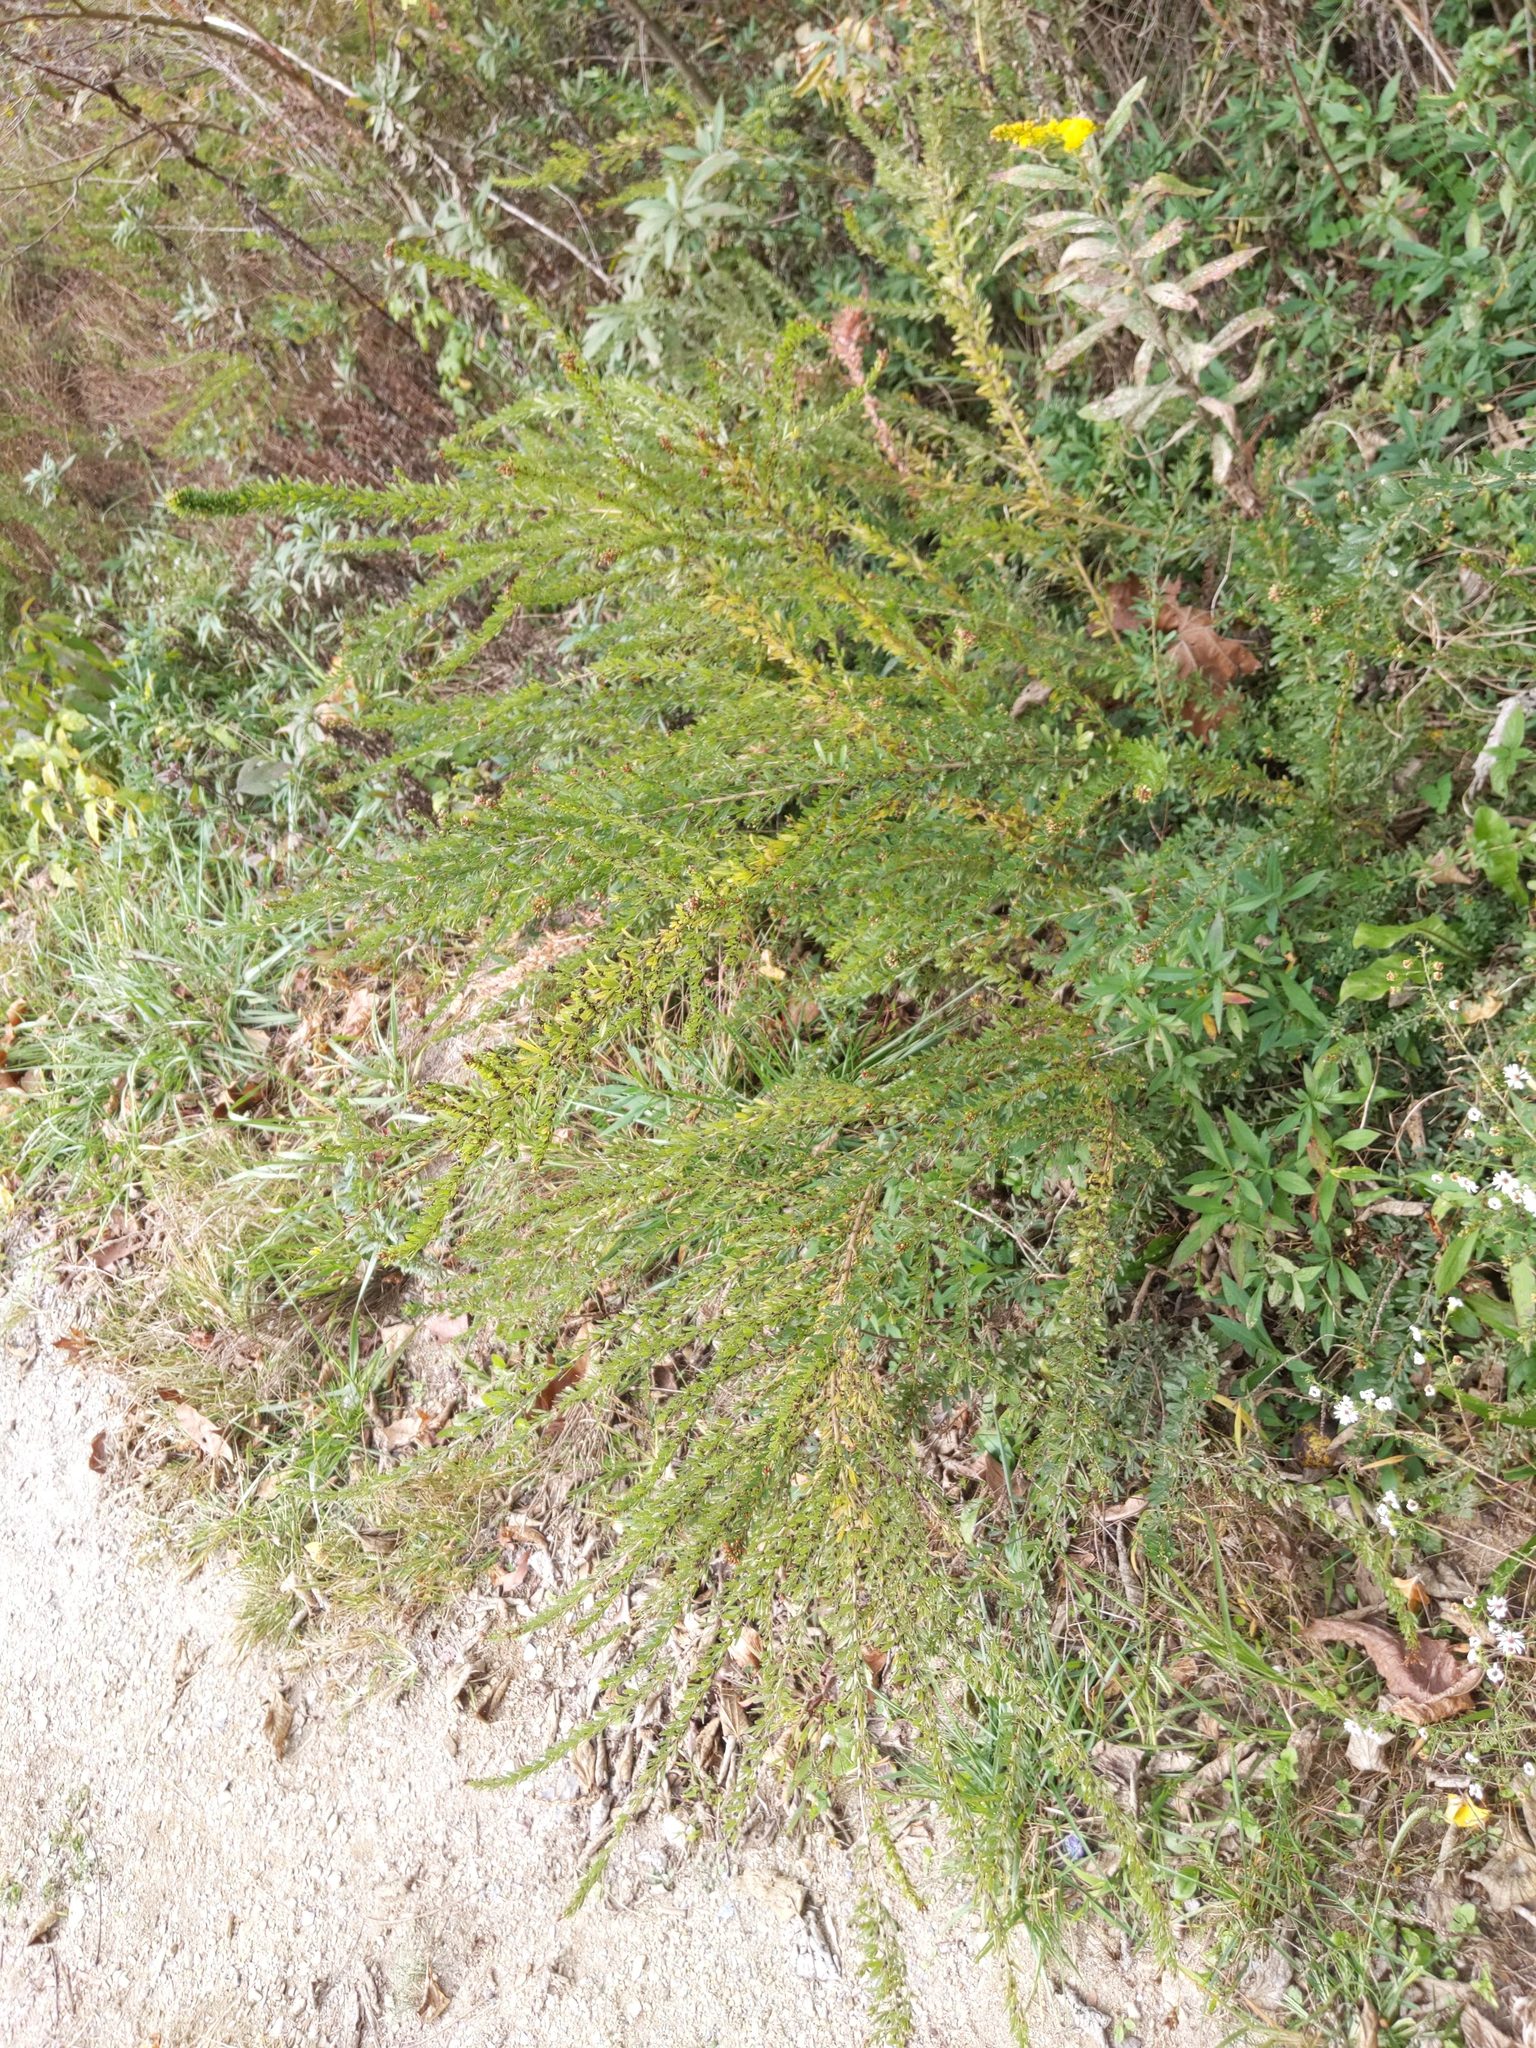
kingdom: Plantae
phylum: Tracheophyta
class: Magnoliopsida
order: Fabales
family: Fabaceae
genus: Lespedeza
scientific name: Lespedeza cuneata
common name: Chinese bush-clover
